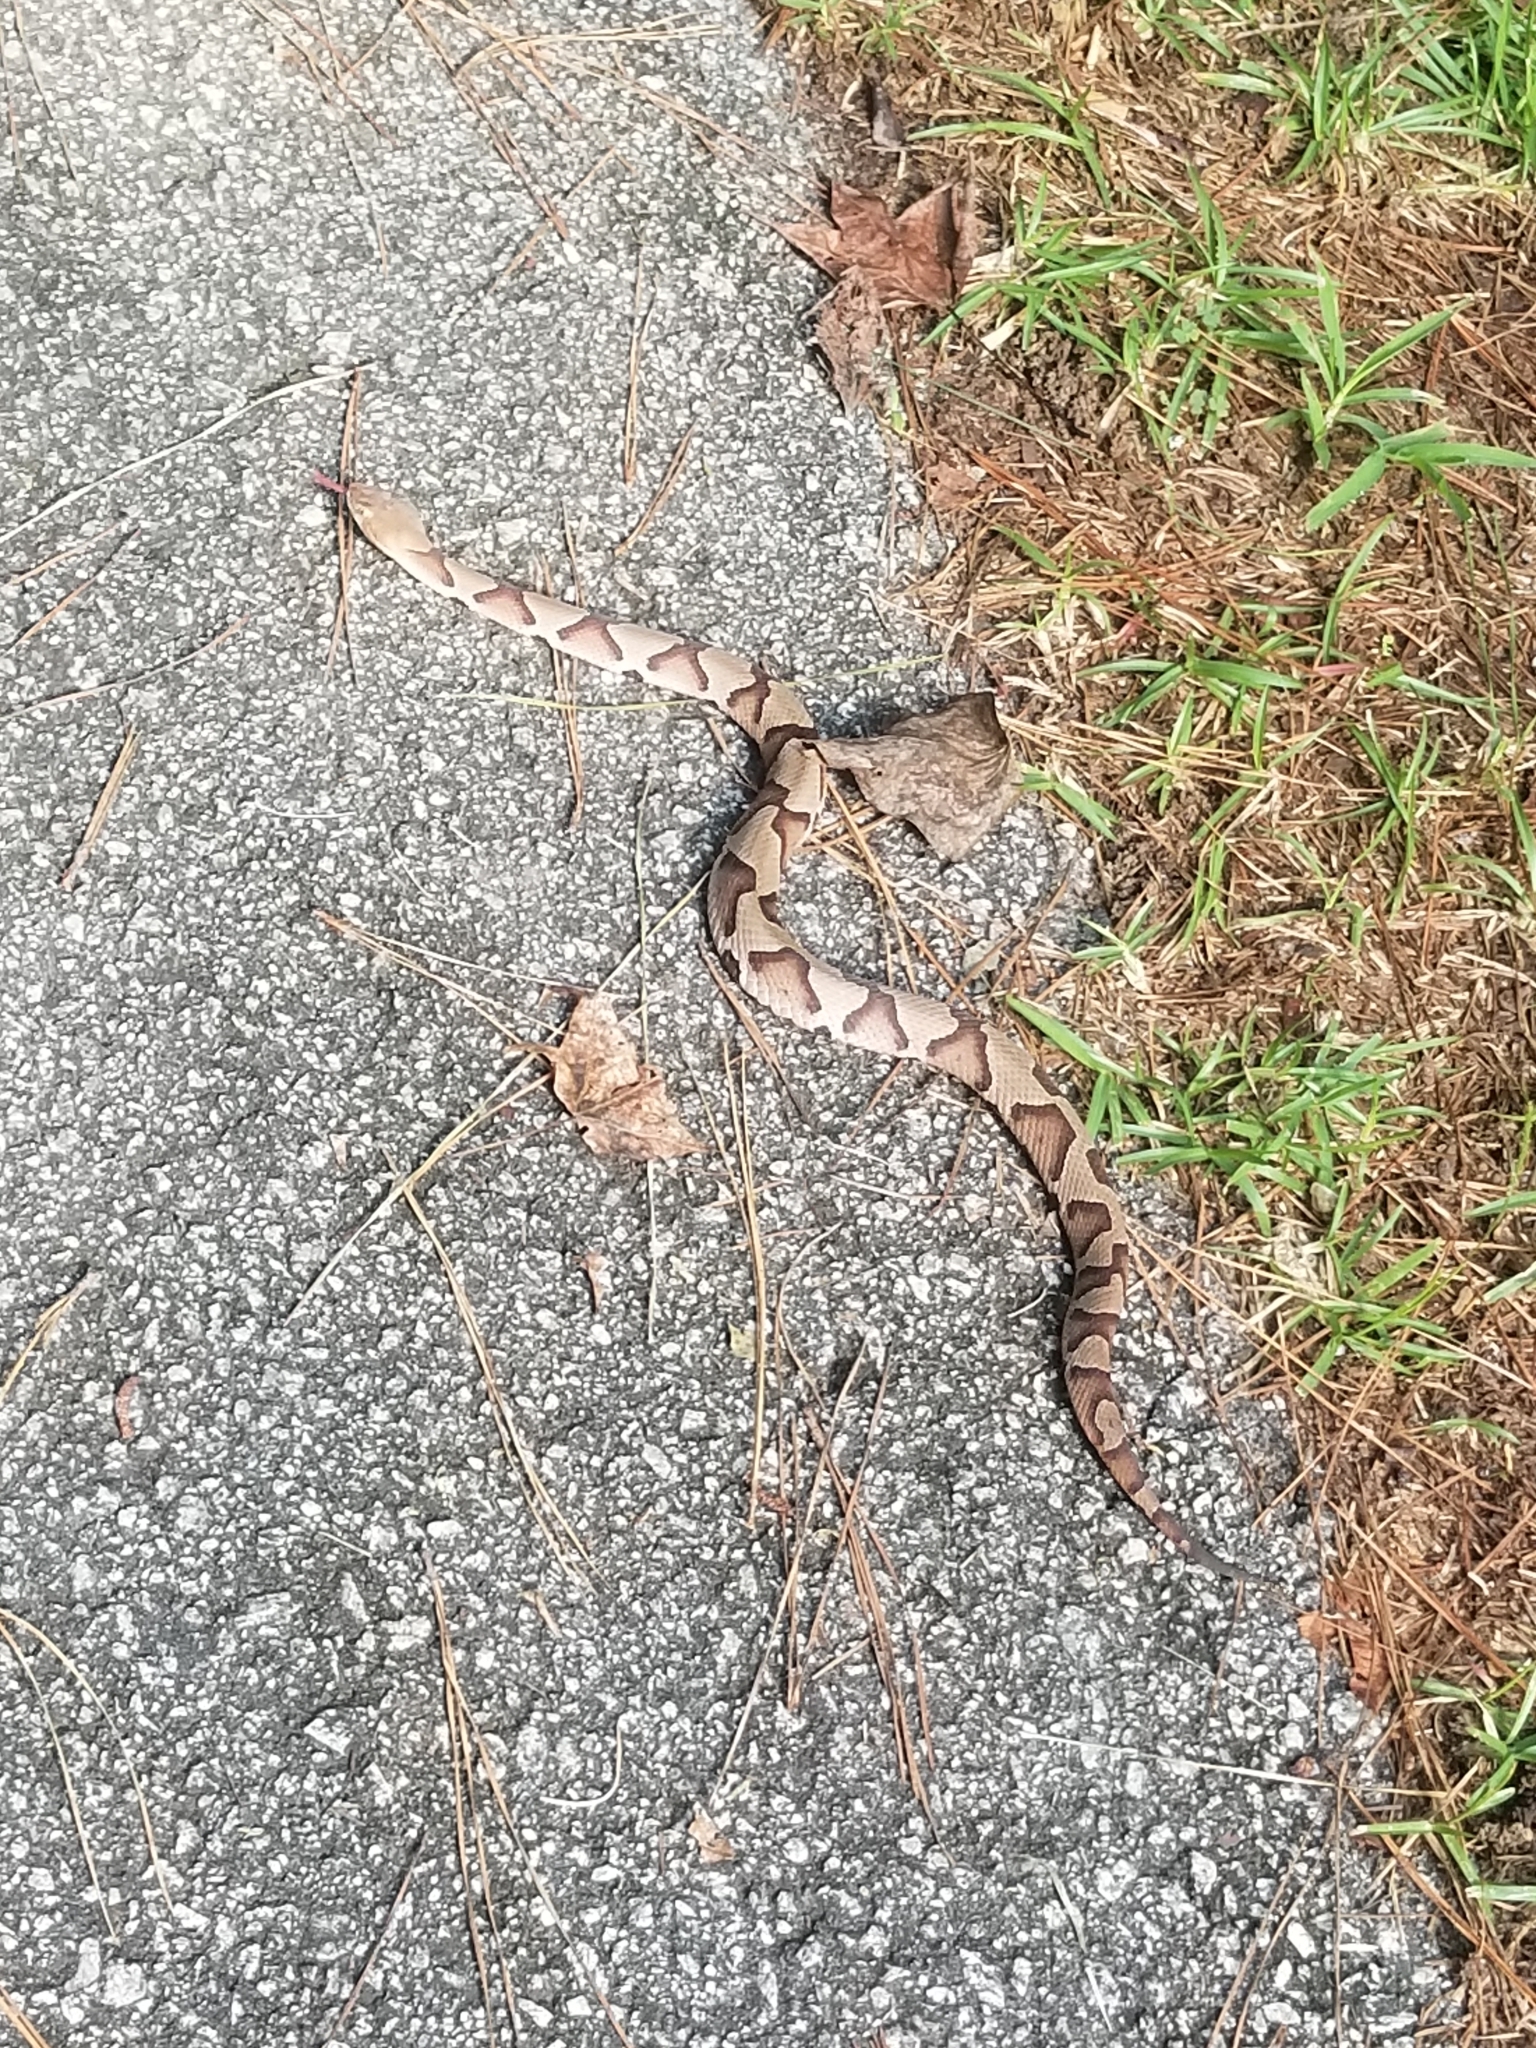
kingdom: Animalia
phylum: Chordata
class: Squamata
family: Viperidae
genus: Agkistrodon
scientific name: Agkistrodon contortrix
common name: Northern copperhead
